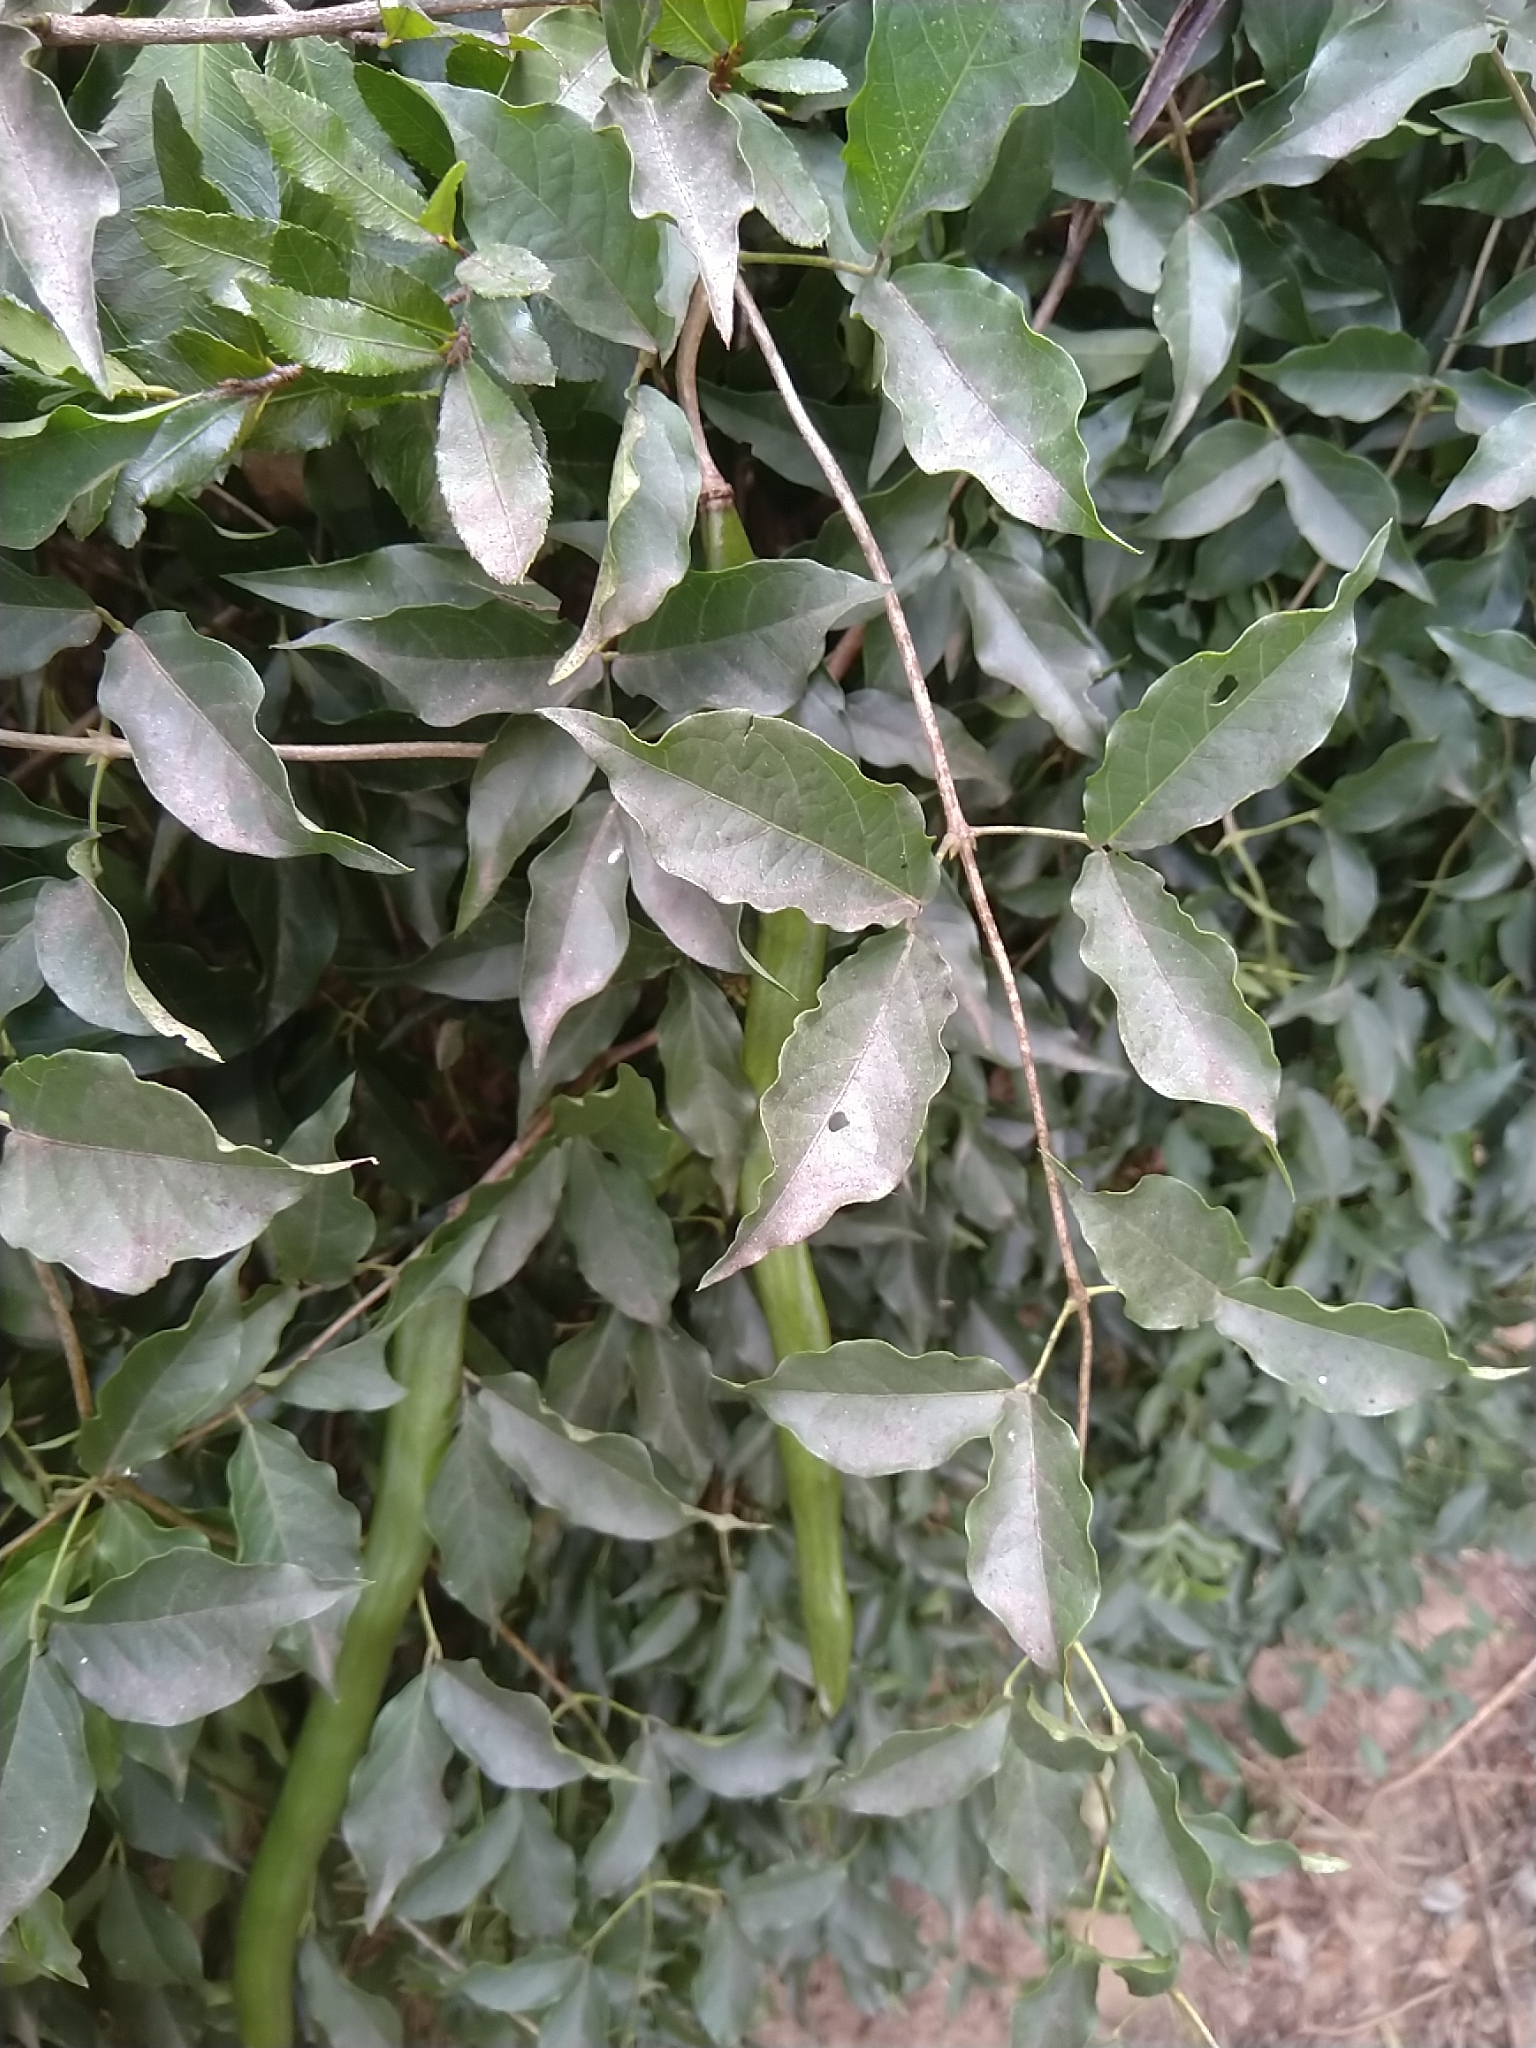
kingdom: Plantae
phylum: Tracheophyta
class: Magnoliopsida
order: Lamiales
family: Bignoniaceae
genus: Dolichandra
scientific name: Dolichandra unguis-cati
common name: Catclaw vine
